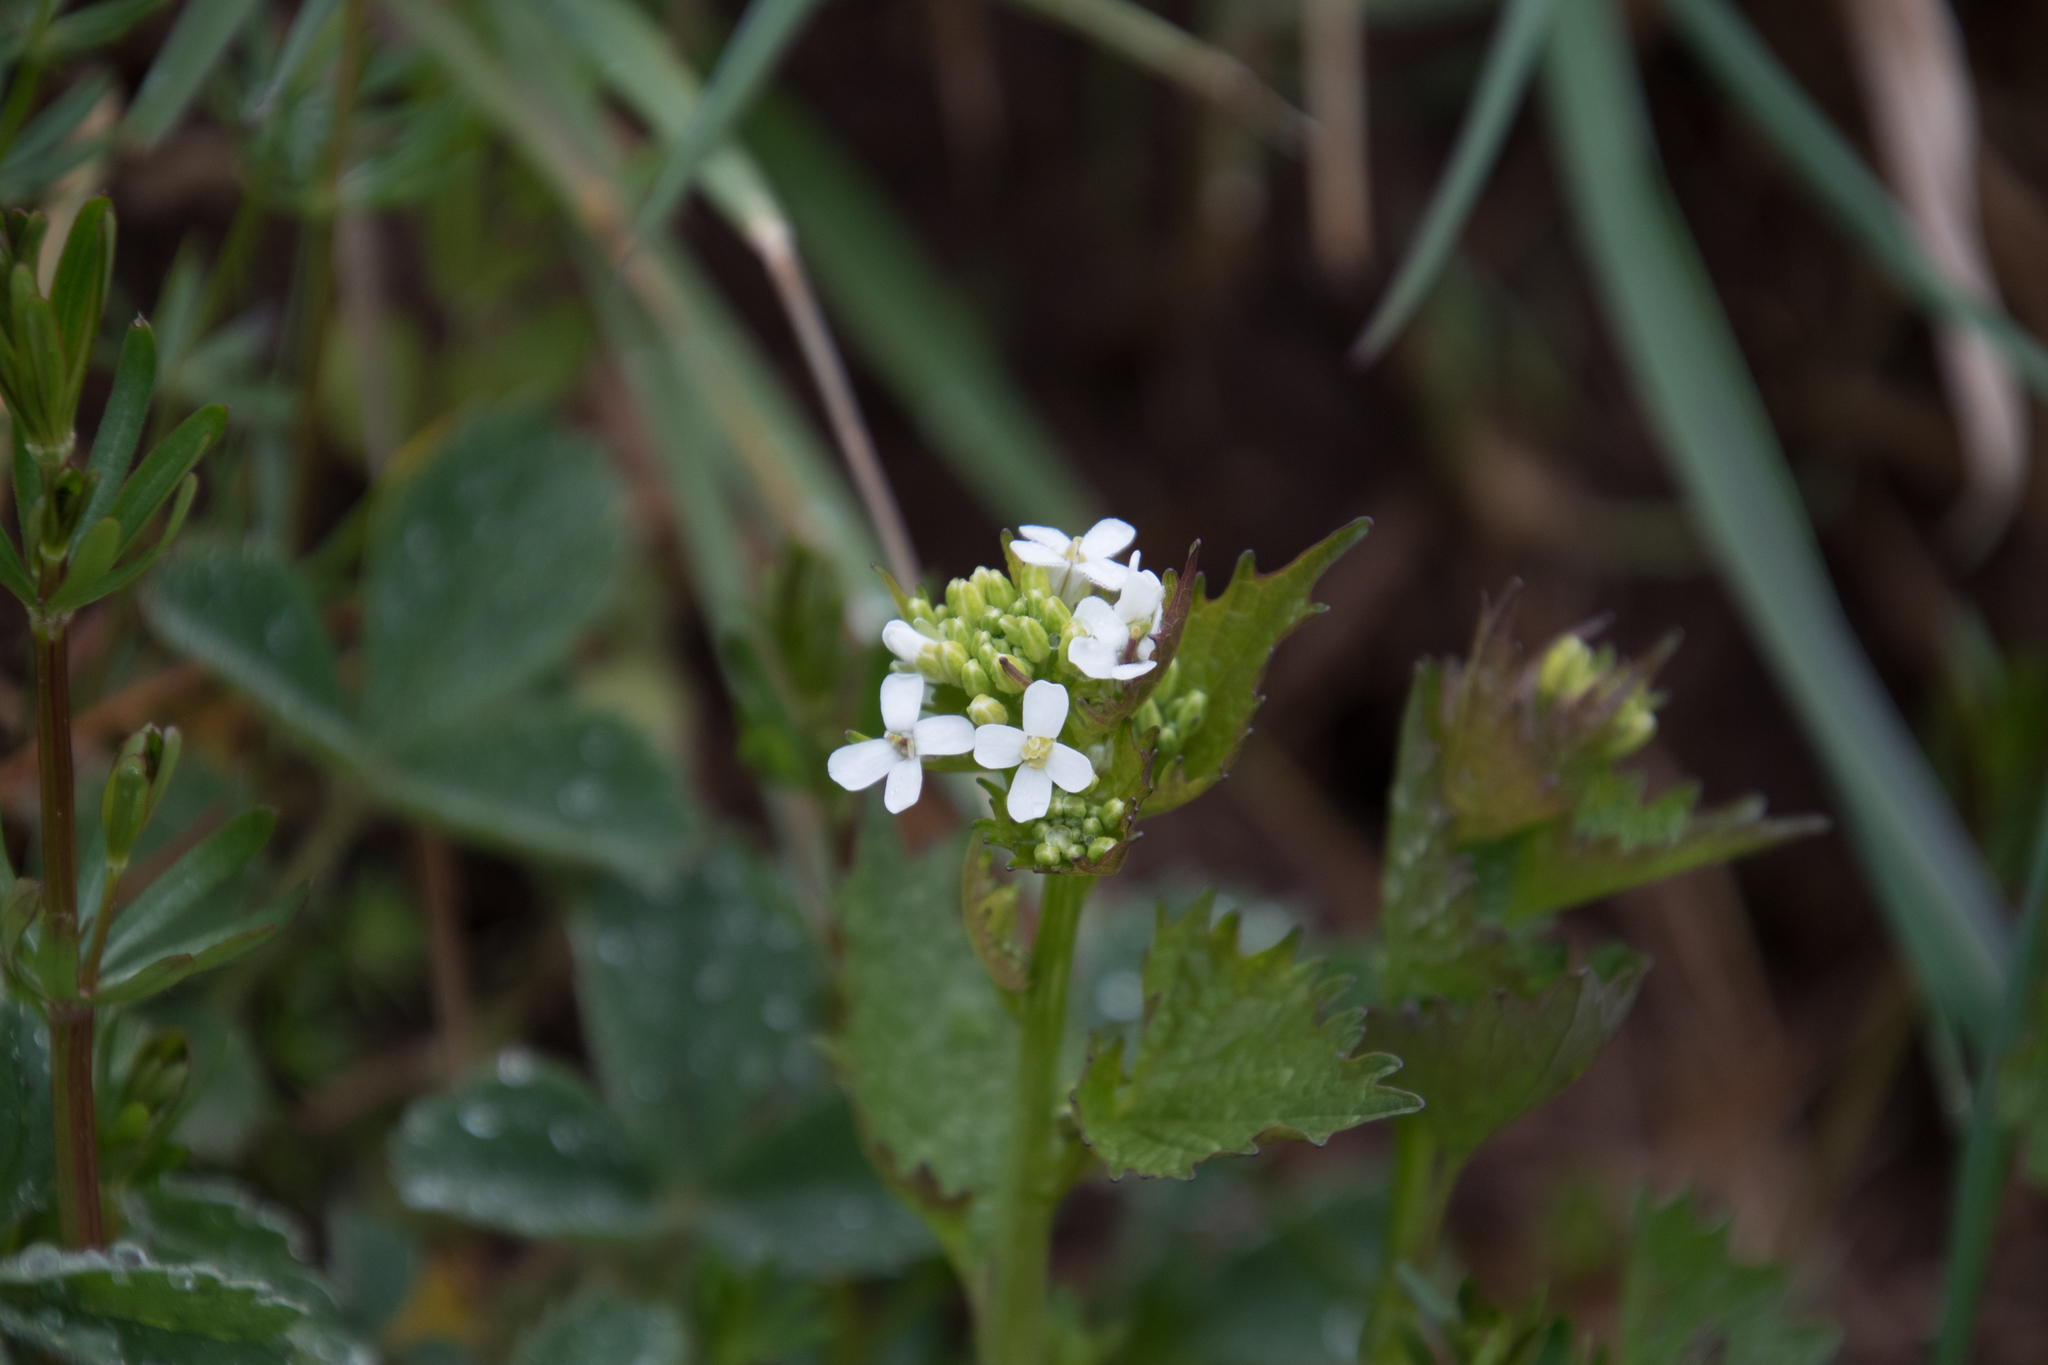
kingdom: Plantae
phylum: Tracheophyta
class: Magnoliopsida
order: Brassicales
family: Brassicaceae
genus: Alliaria
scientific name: Alliaria petiolata
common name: Garlic mustard
